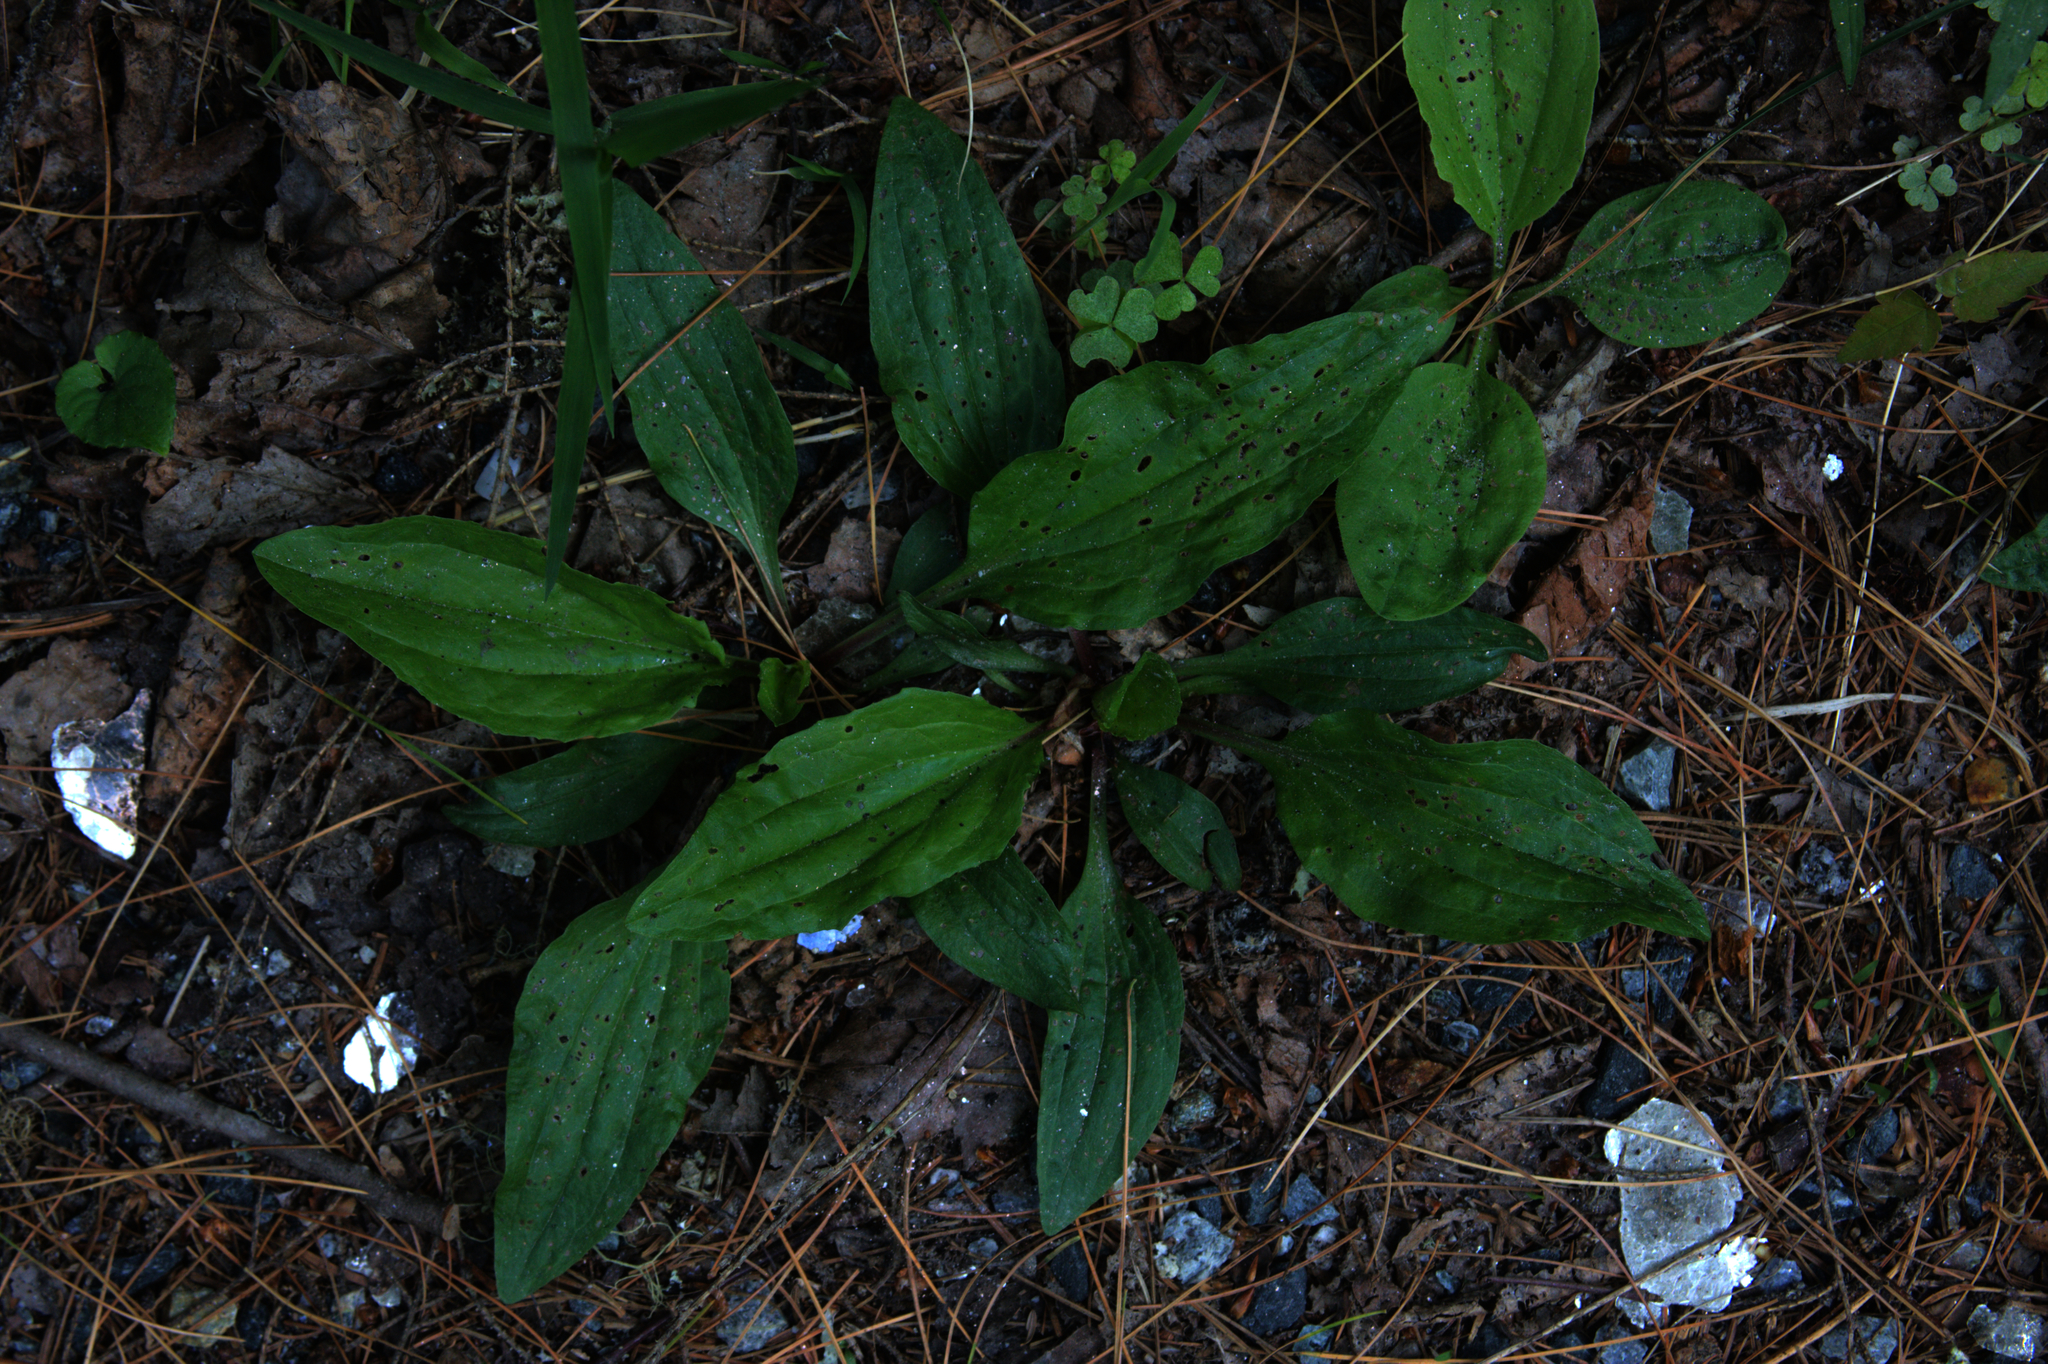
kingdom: Plantae
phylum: Tracheophyta
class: Magnoliopsida
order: Lamiales
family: Plantaginaceae
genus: Plantago
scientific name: Plantago rugelii
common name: American plantain
